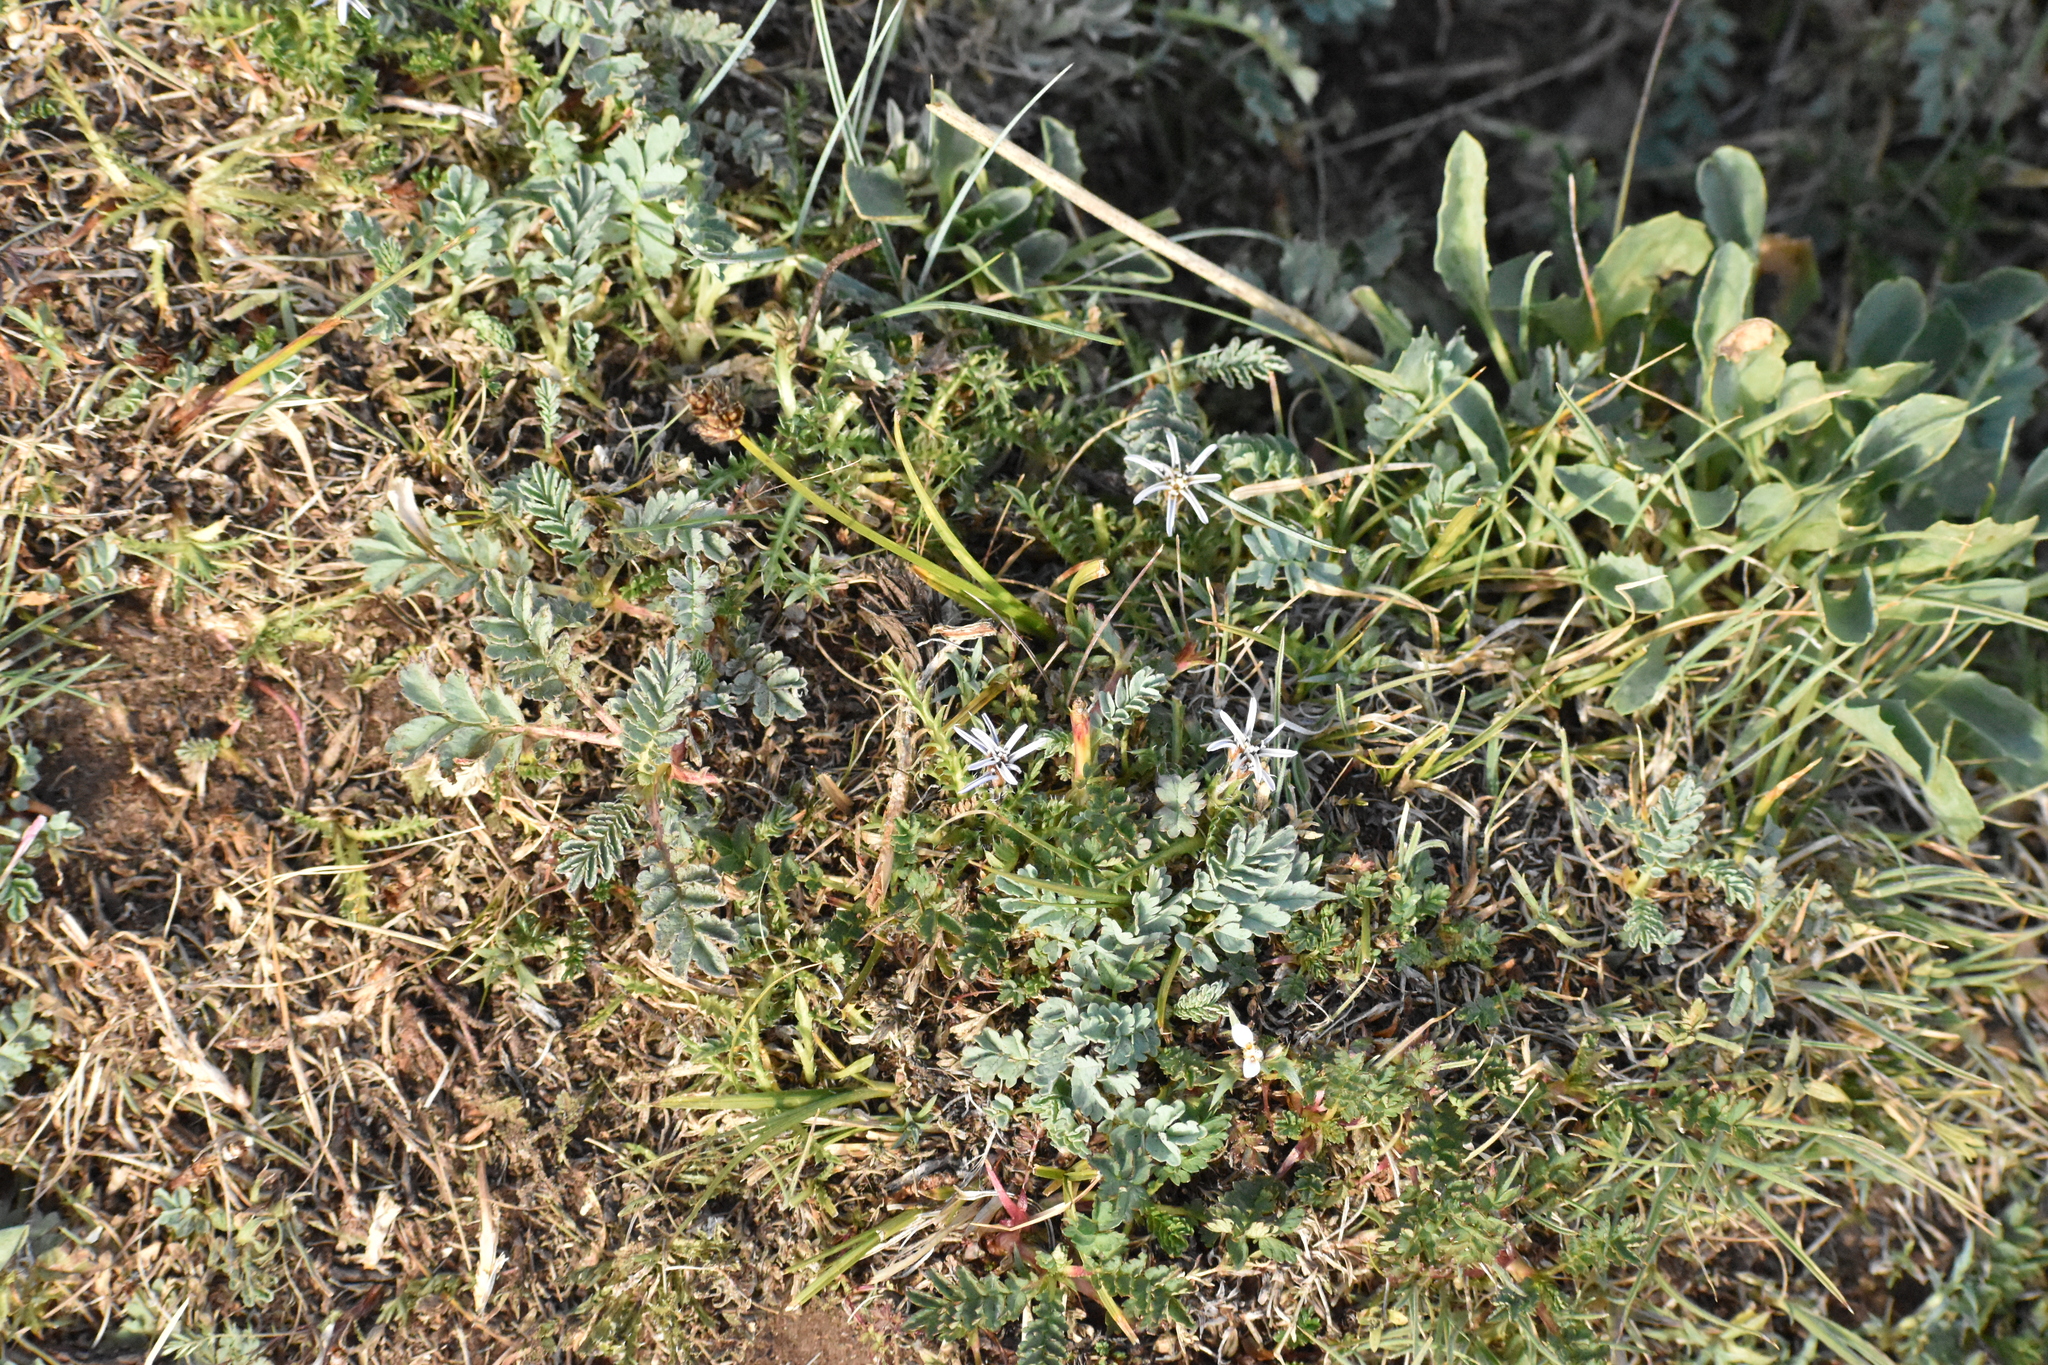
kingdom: Plantae
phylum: Tracheophyta
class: Magnoliopsida
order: Asterales
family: Asteraceae
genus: Perezia
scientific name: Perezia pilifera
